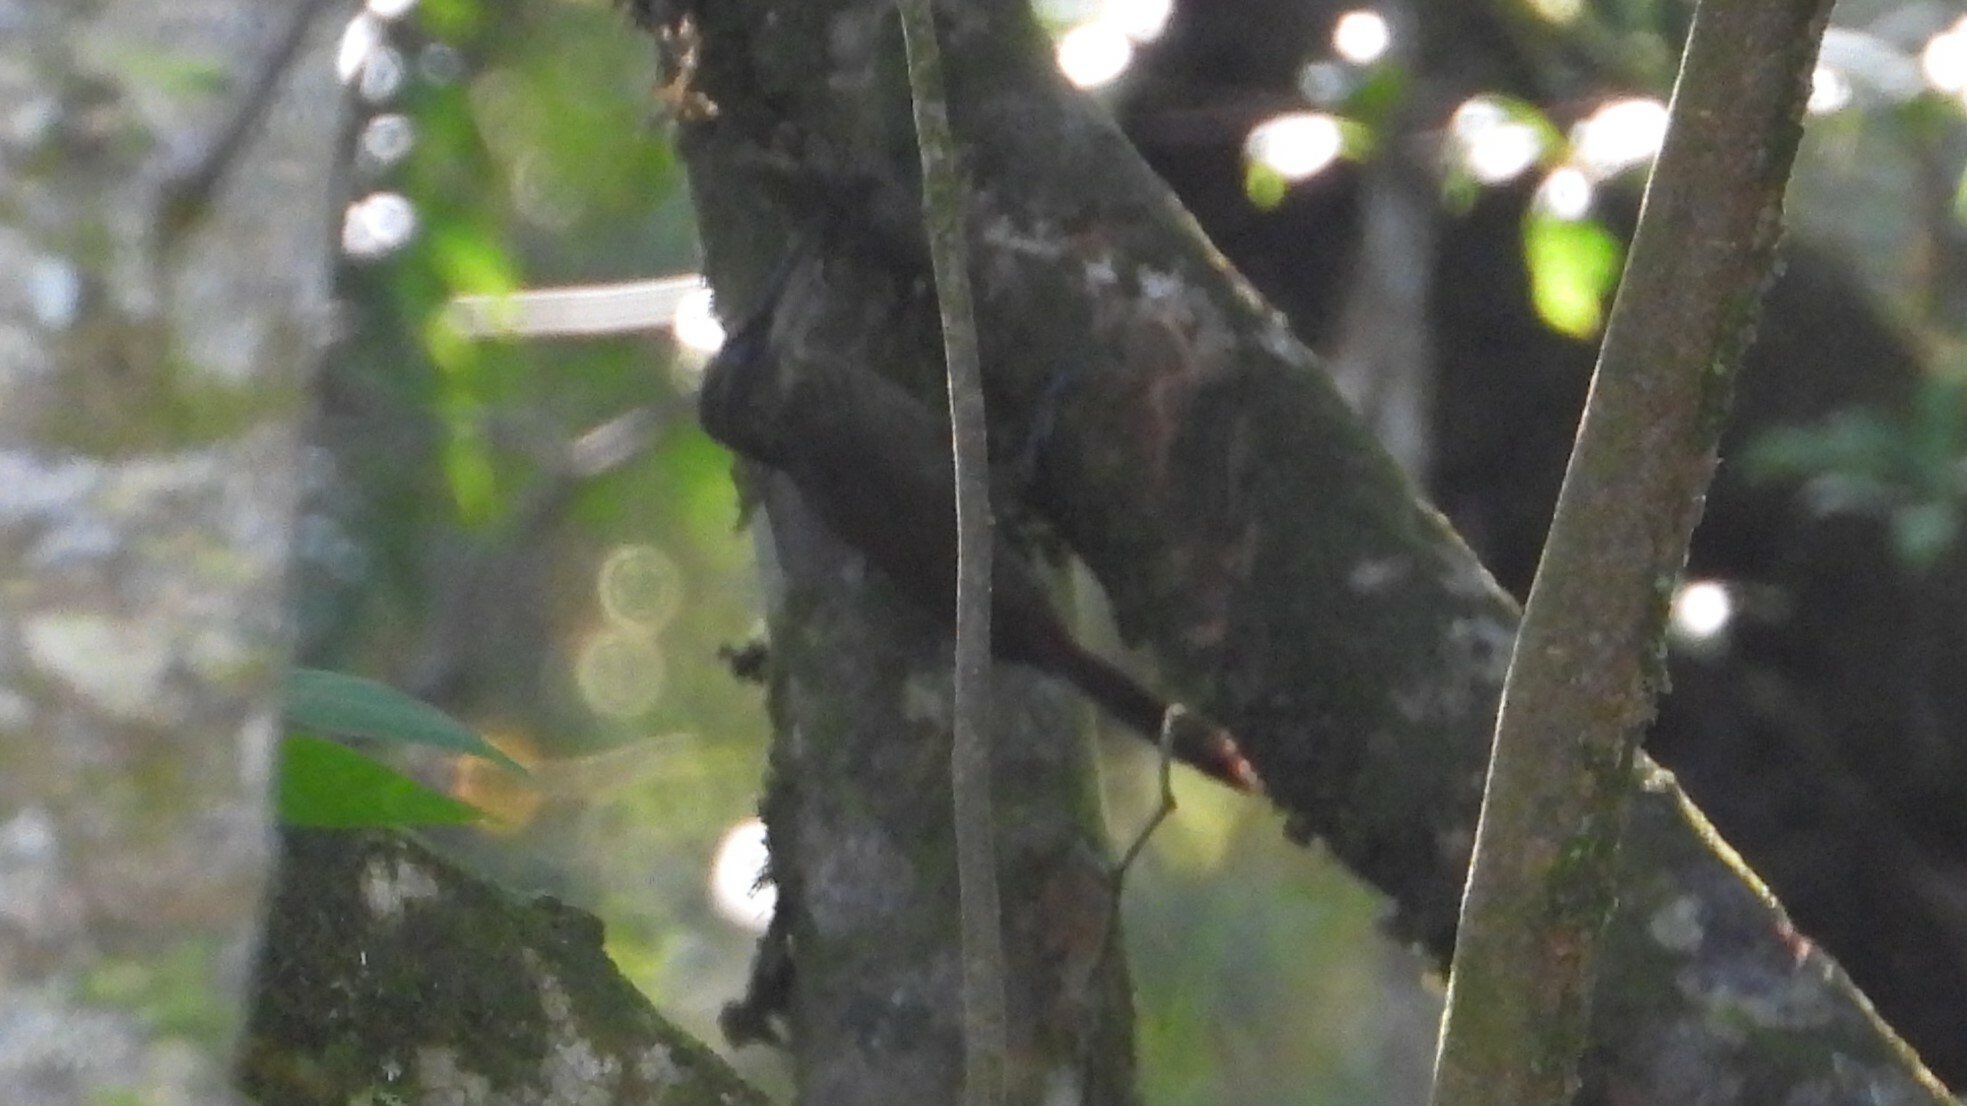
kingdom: Animalia
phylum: Chordata
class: Aves
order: Passeriformes
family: Furnariidae
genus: Xiphorhynchus
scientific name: Xiphorhynchus susurrans
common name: Cocoa woodcreeper
